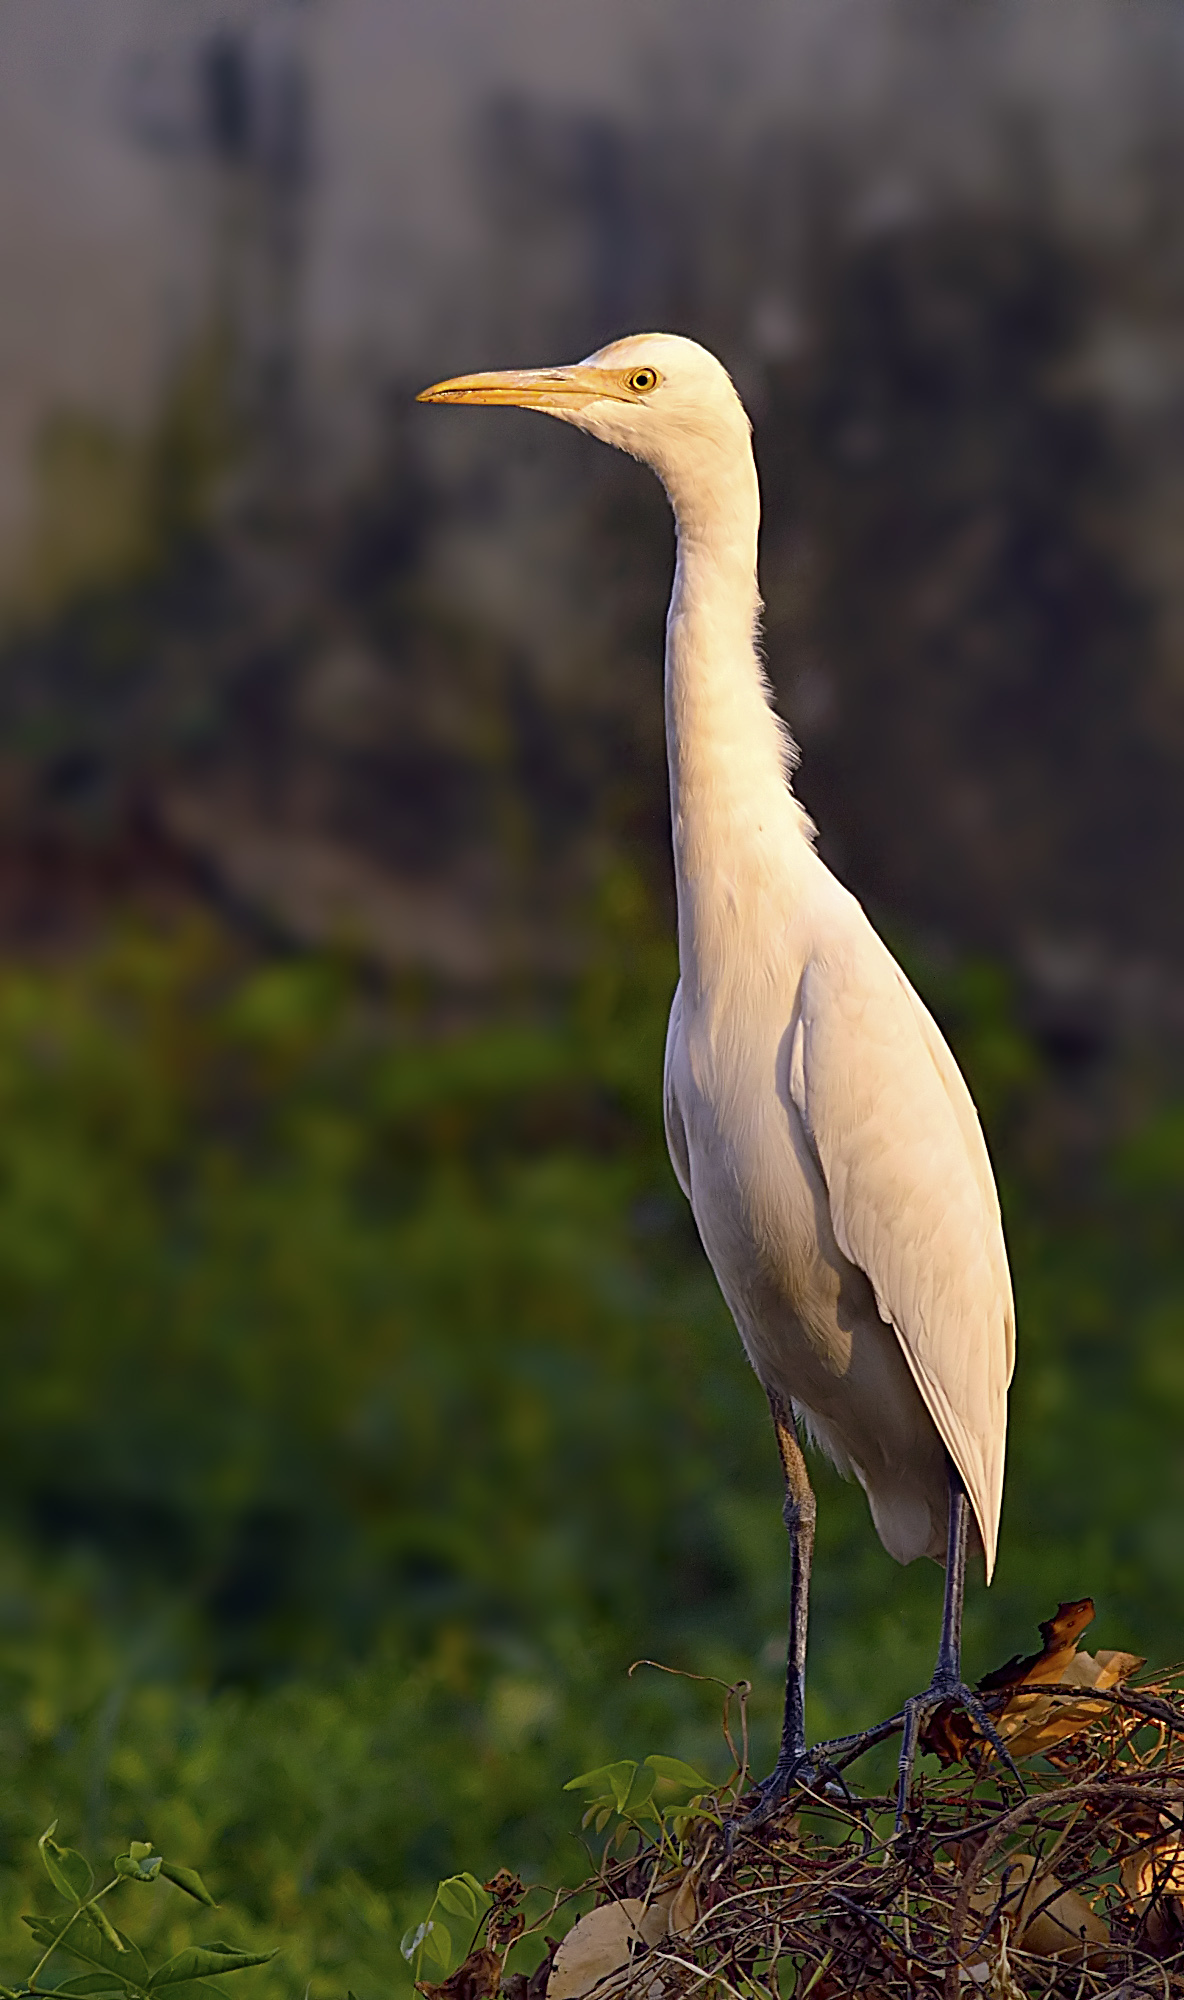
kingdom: Animalia
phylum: Chordata
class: Aves
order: Pelecaniformes
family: Ardeidae
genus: Bubulcus
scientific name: Bubulcus coromandus
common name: Eastern cattle egret
